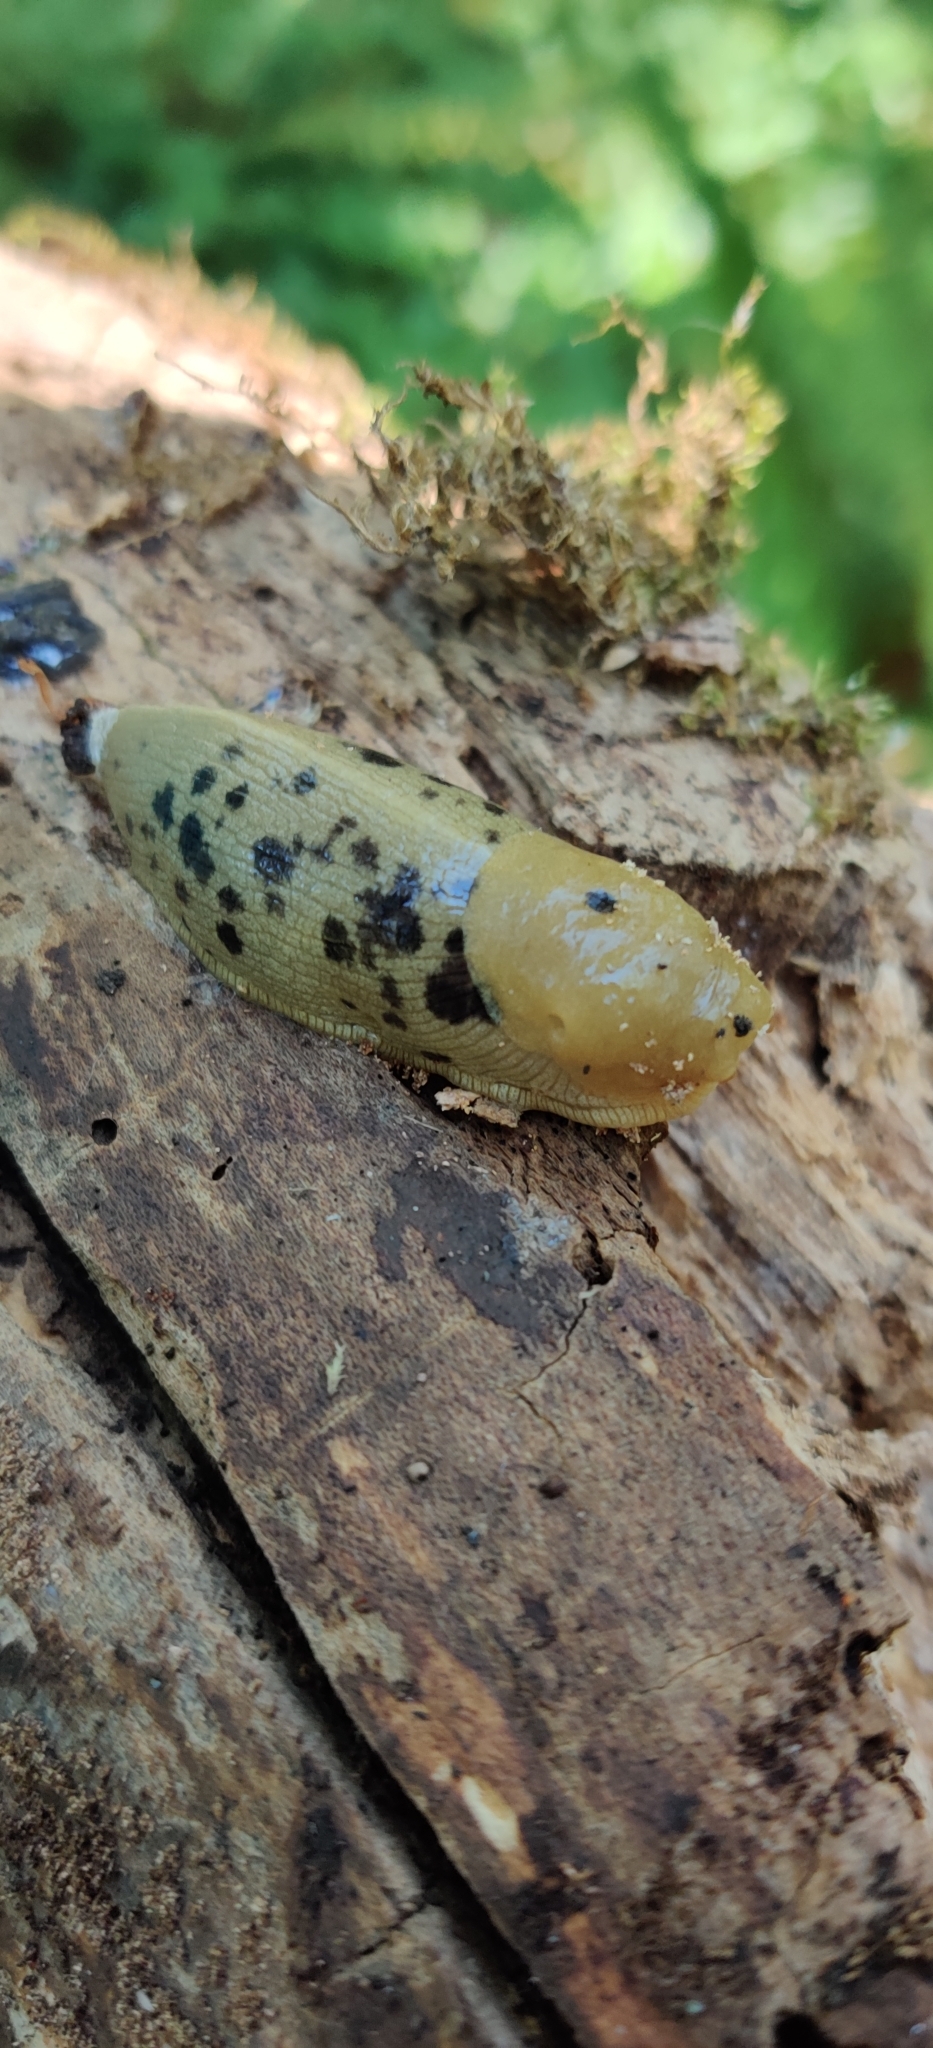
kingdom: Animalia
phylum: Mollusca
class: Gastropoda
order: Stylommatophora
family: Ariolimacidae
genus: Ariolimax
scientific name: Ariolimax columbianus
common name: Pacific banana slug
